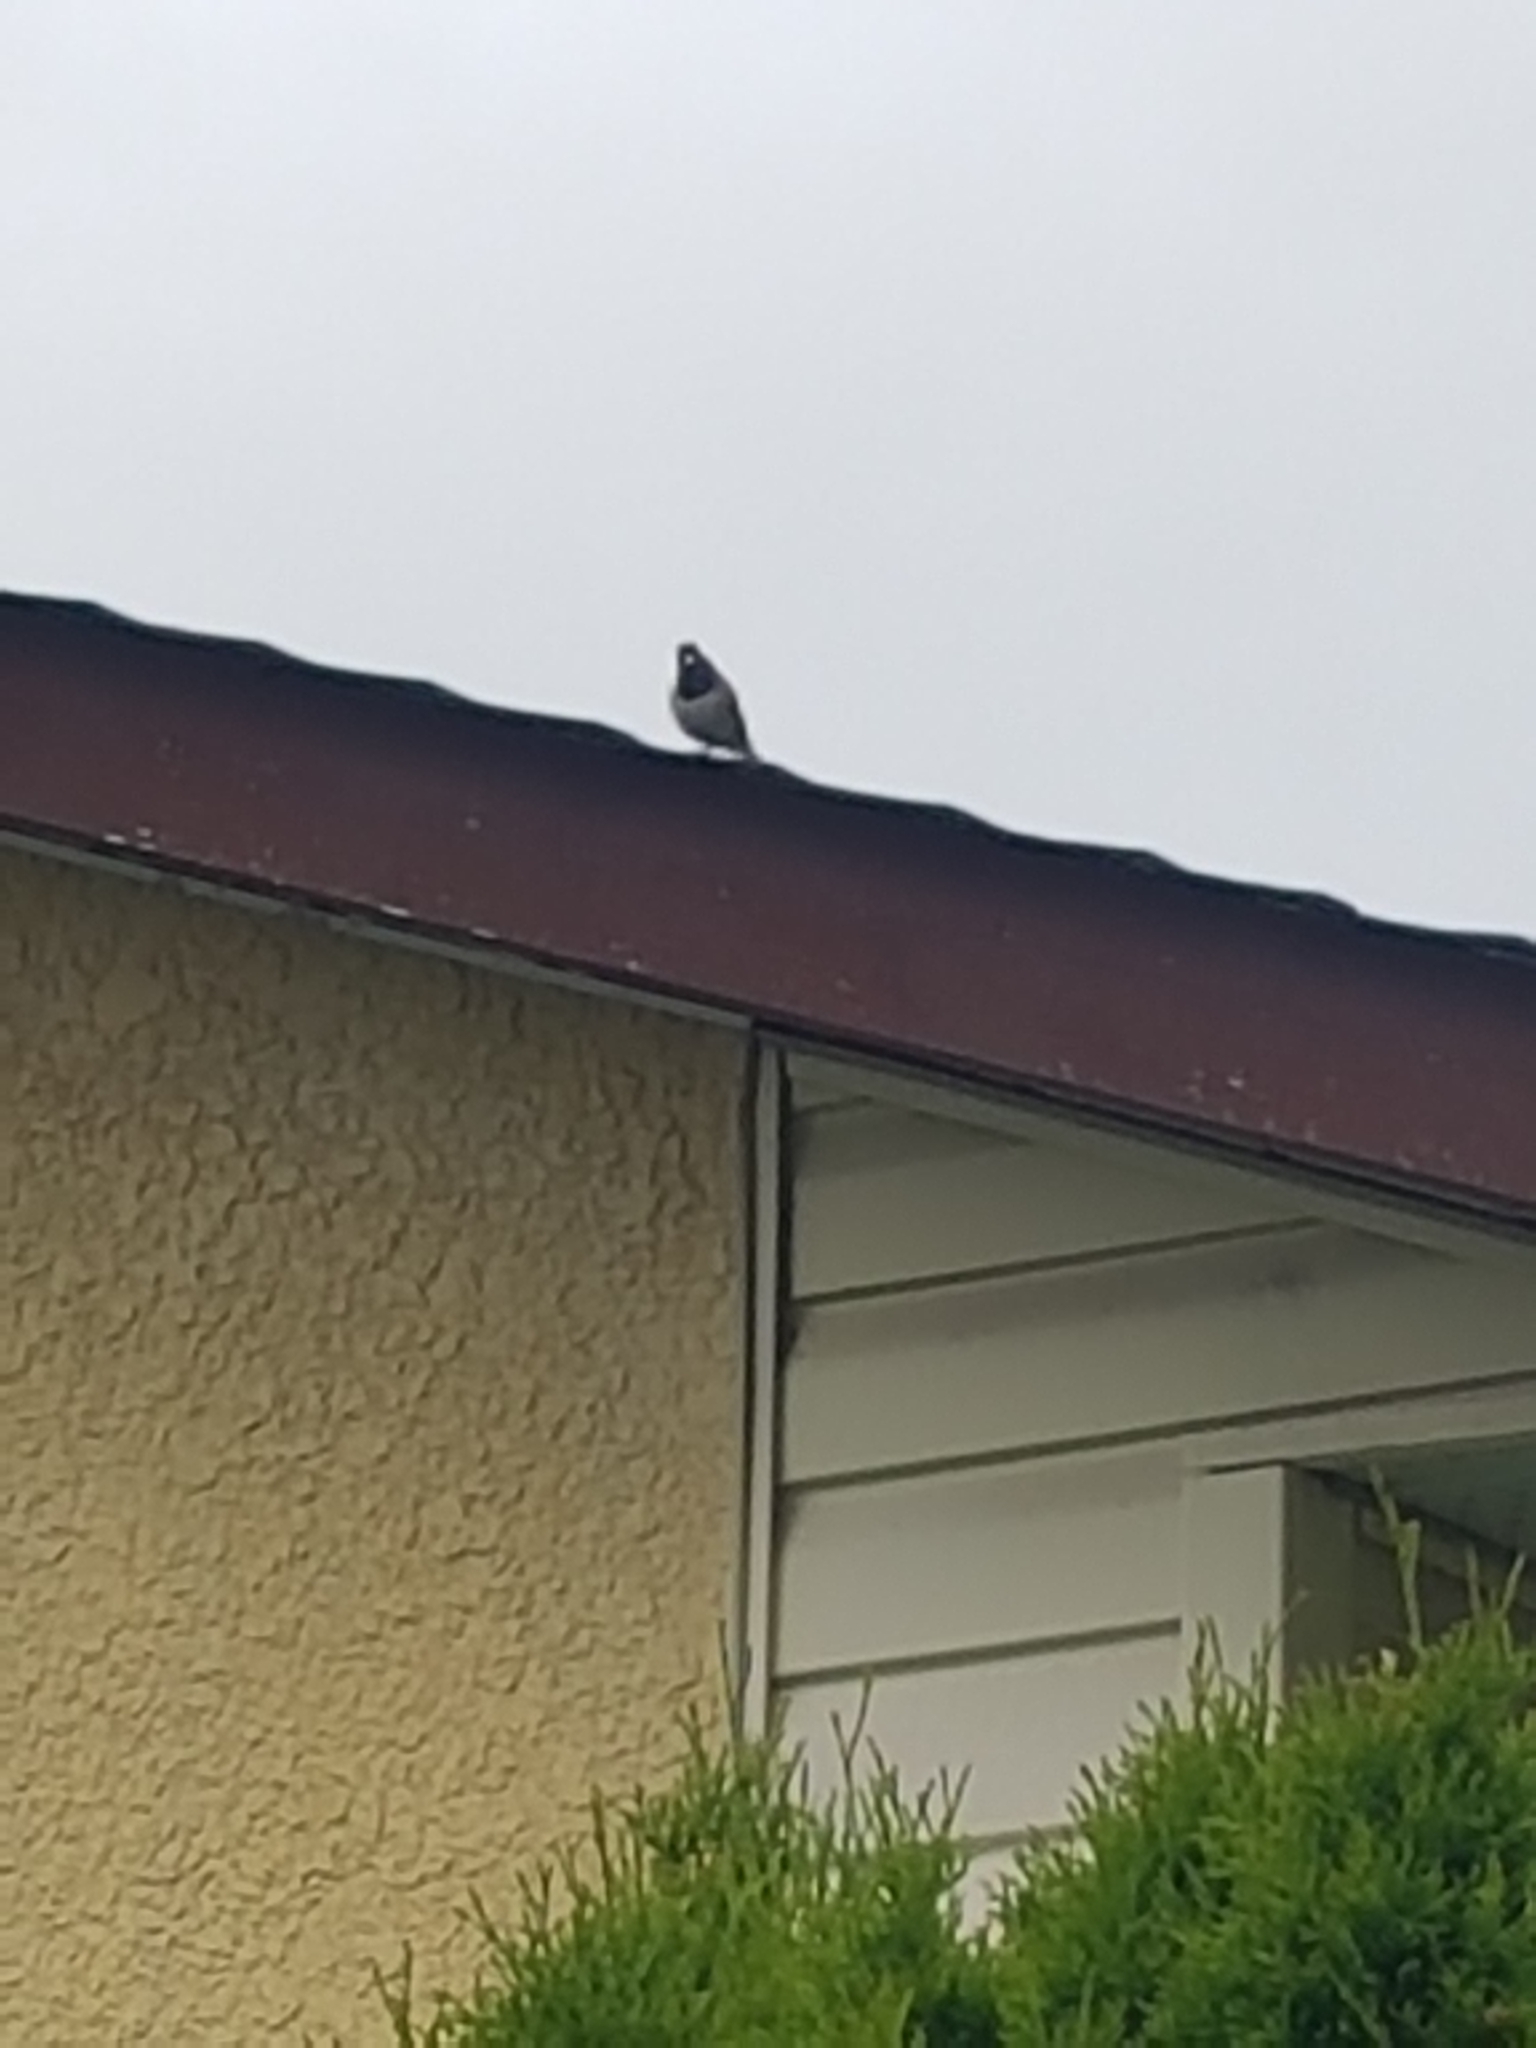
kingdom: Animalia
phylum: Chordata
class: Aves
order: Passeriformes
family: Passerellidae
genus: Junco
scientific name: Junco hyemalis
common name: Dark-eyed junco
